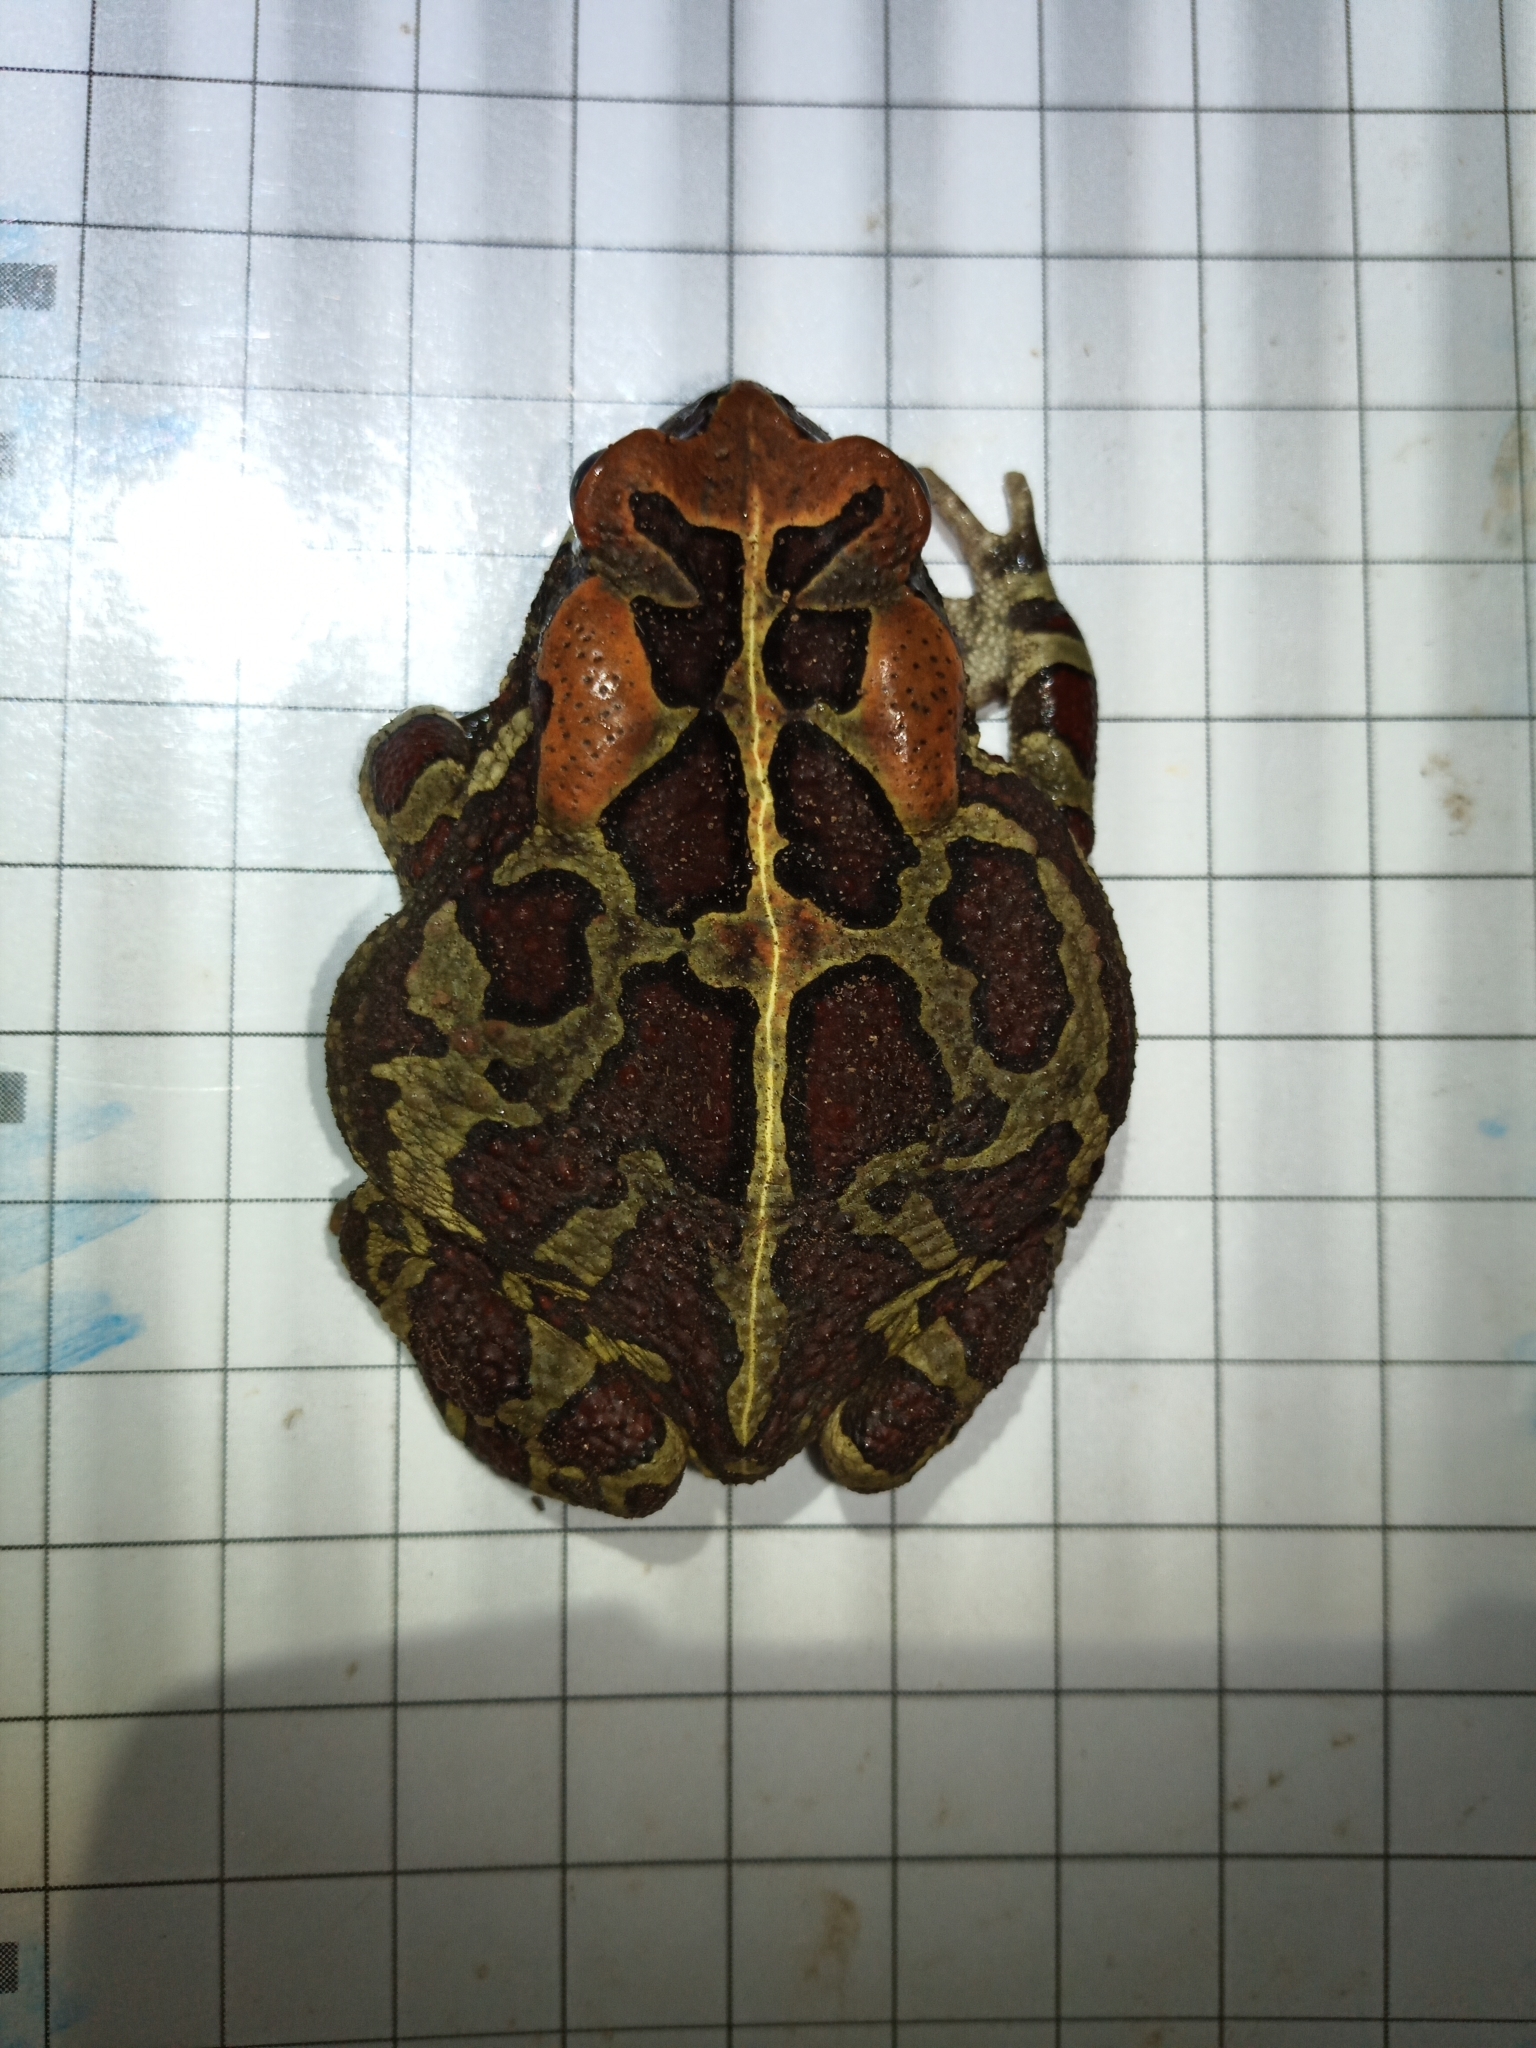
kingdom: Animalia
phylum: Chordata
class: Amphibia
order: Anura
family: Bufonidae
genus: Sclerophrys
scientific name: Sclerophrys pantherina
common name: Panther toad
